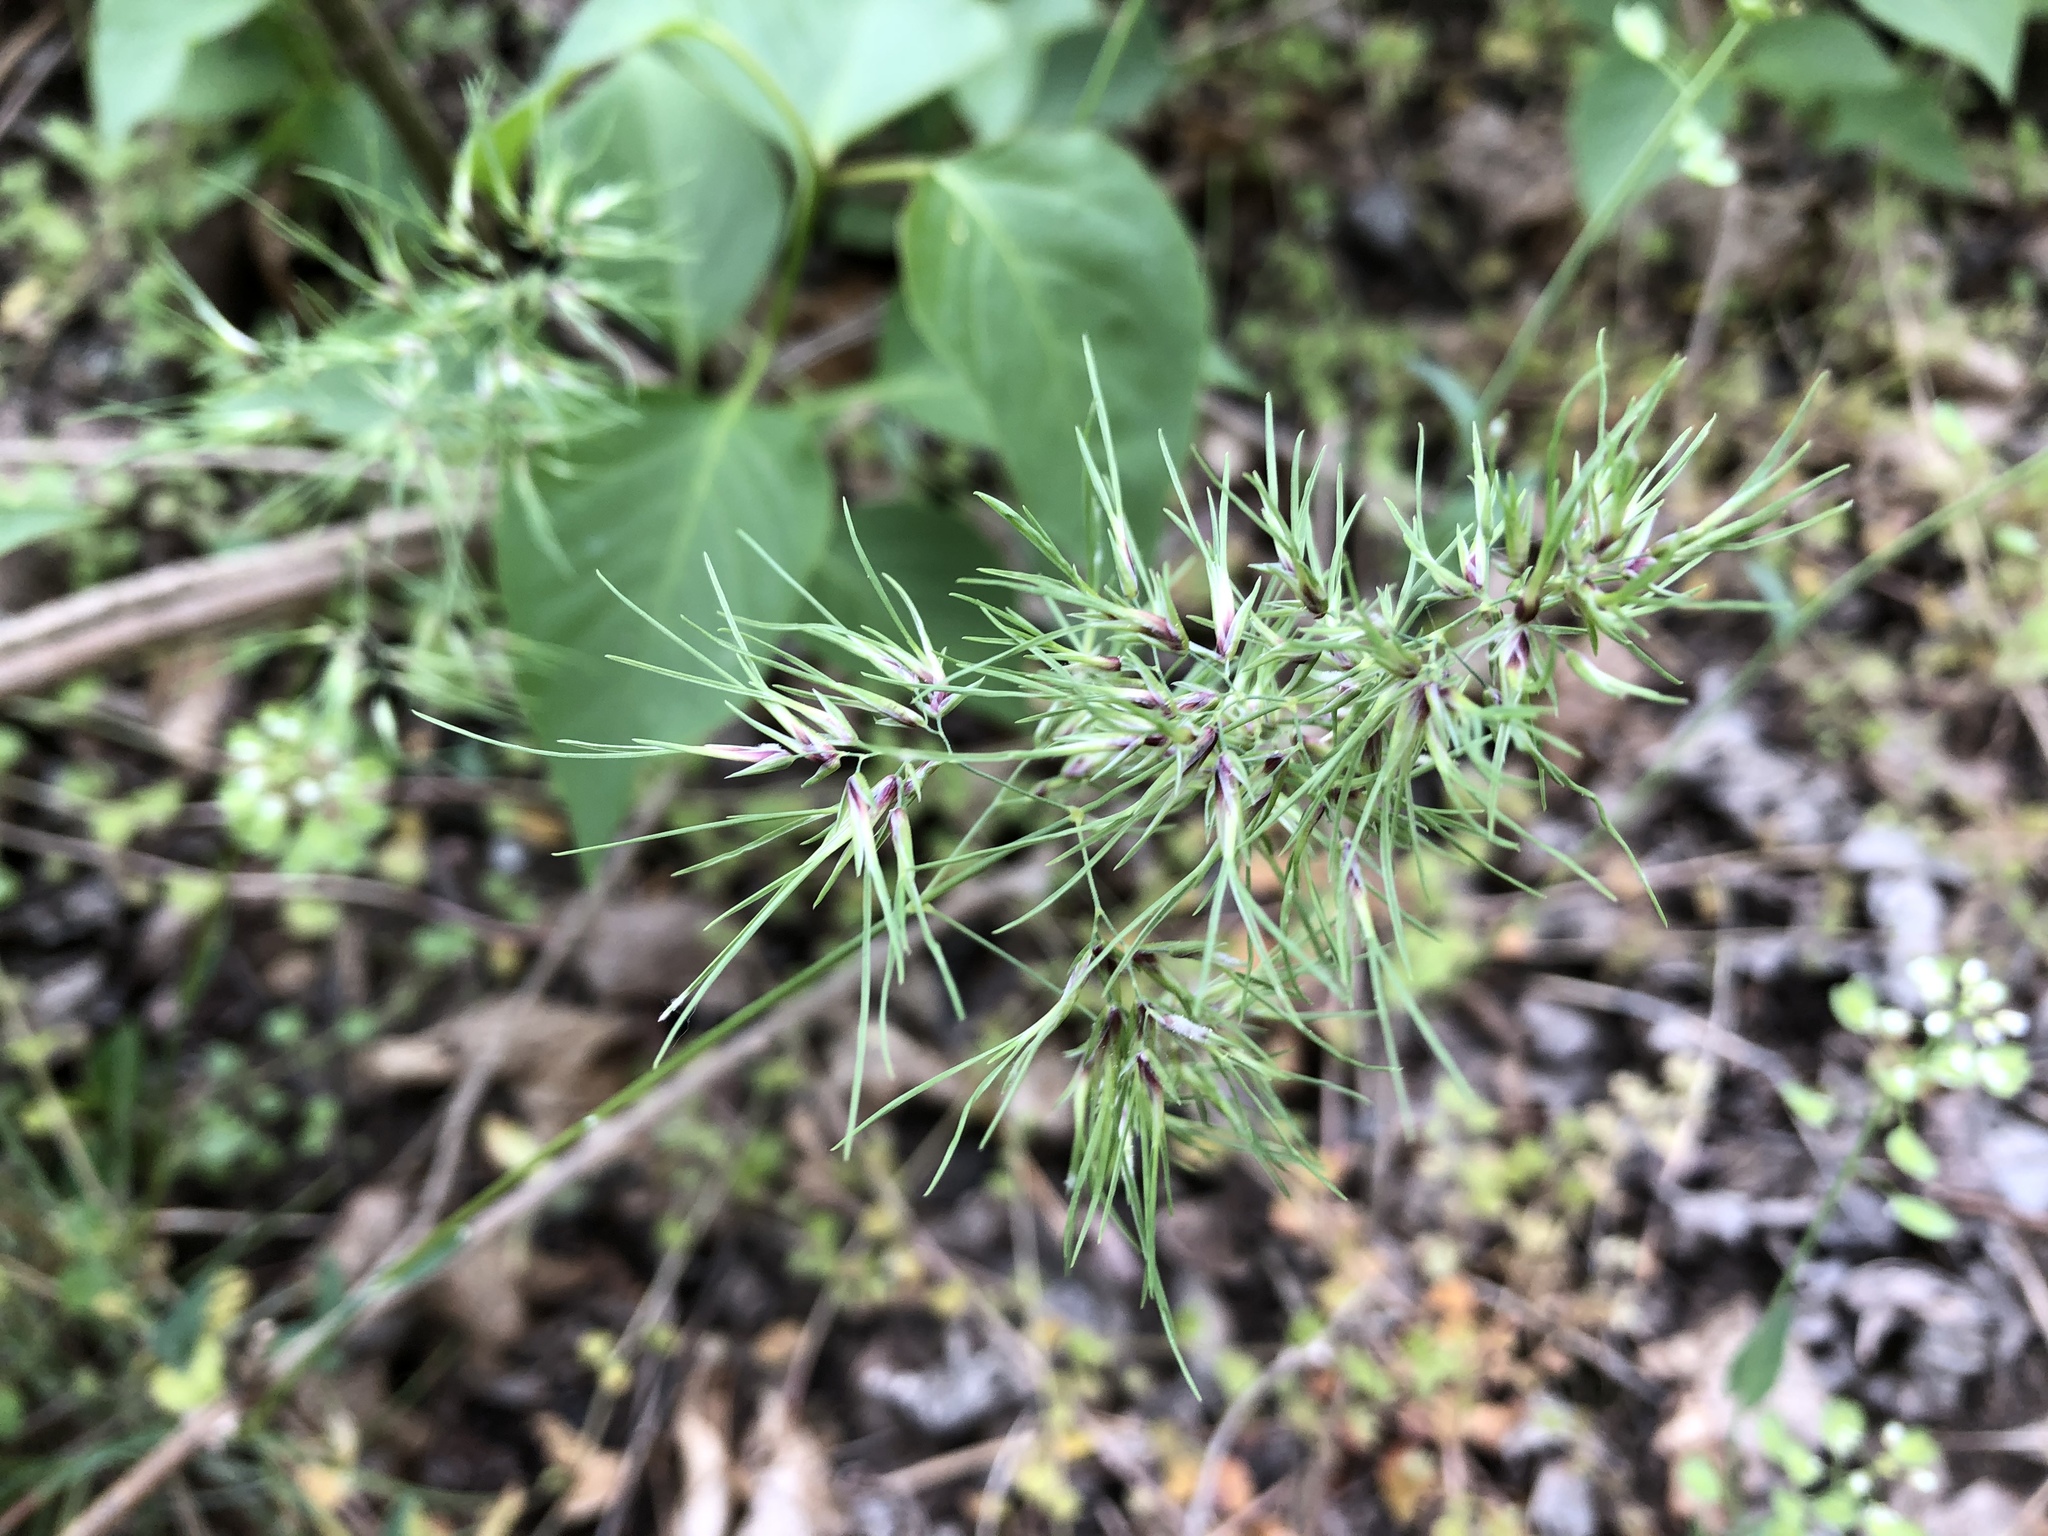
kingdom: Plantae
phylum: Tracheophyta
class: Liliopsida
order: Poales
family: Poaceae
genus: Poa
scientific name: Poa bulbosa
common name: Bulbous bluegrass
